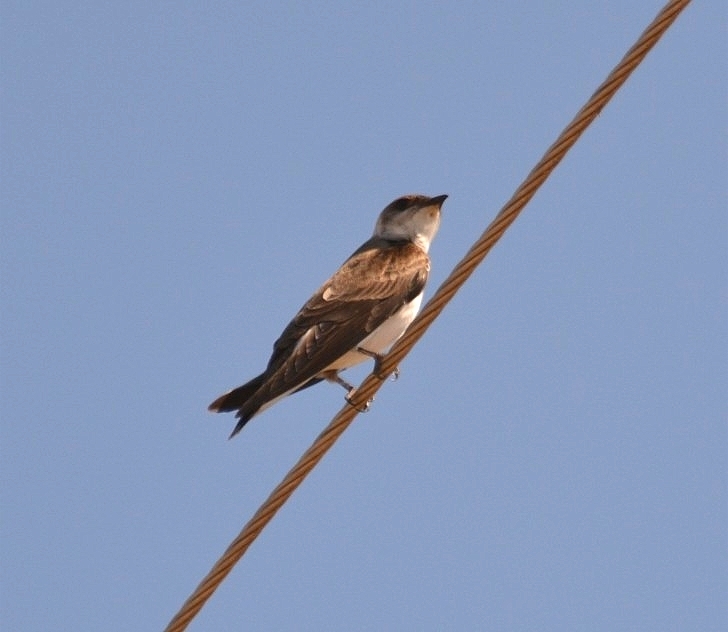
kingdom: Animalia
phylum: Chordata
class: Aves
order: Passeriformes
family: Hirundinidae
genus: Progne
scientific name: Progne tapera
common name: Brown-chested martin
